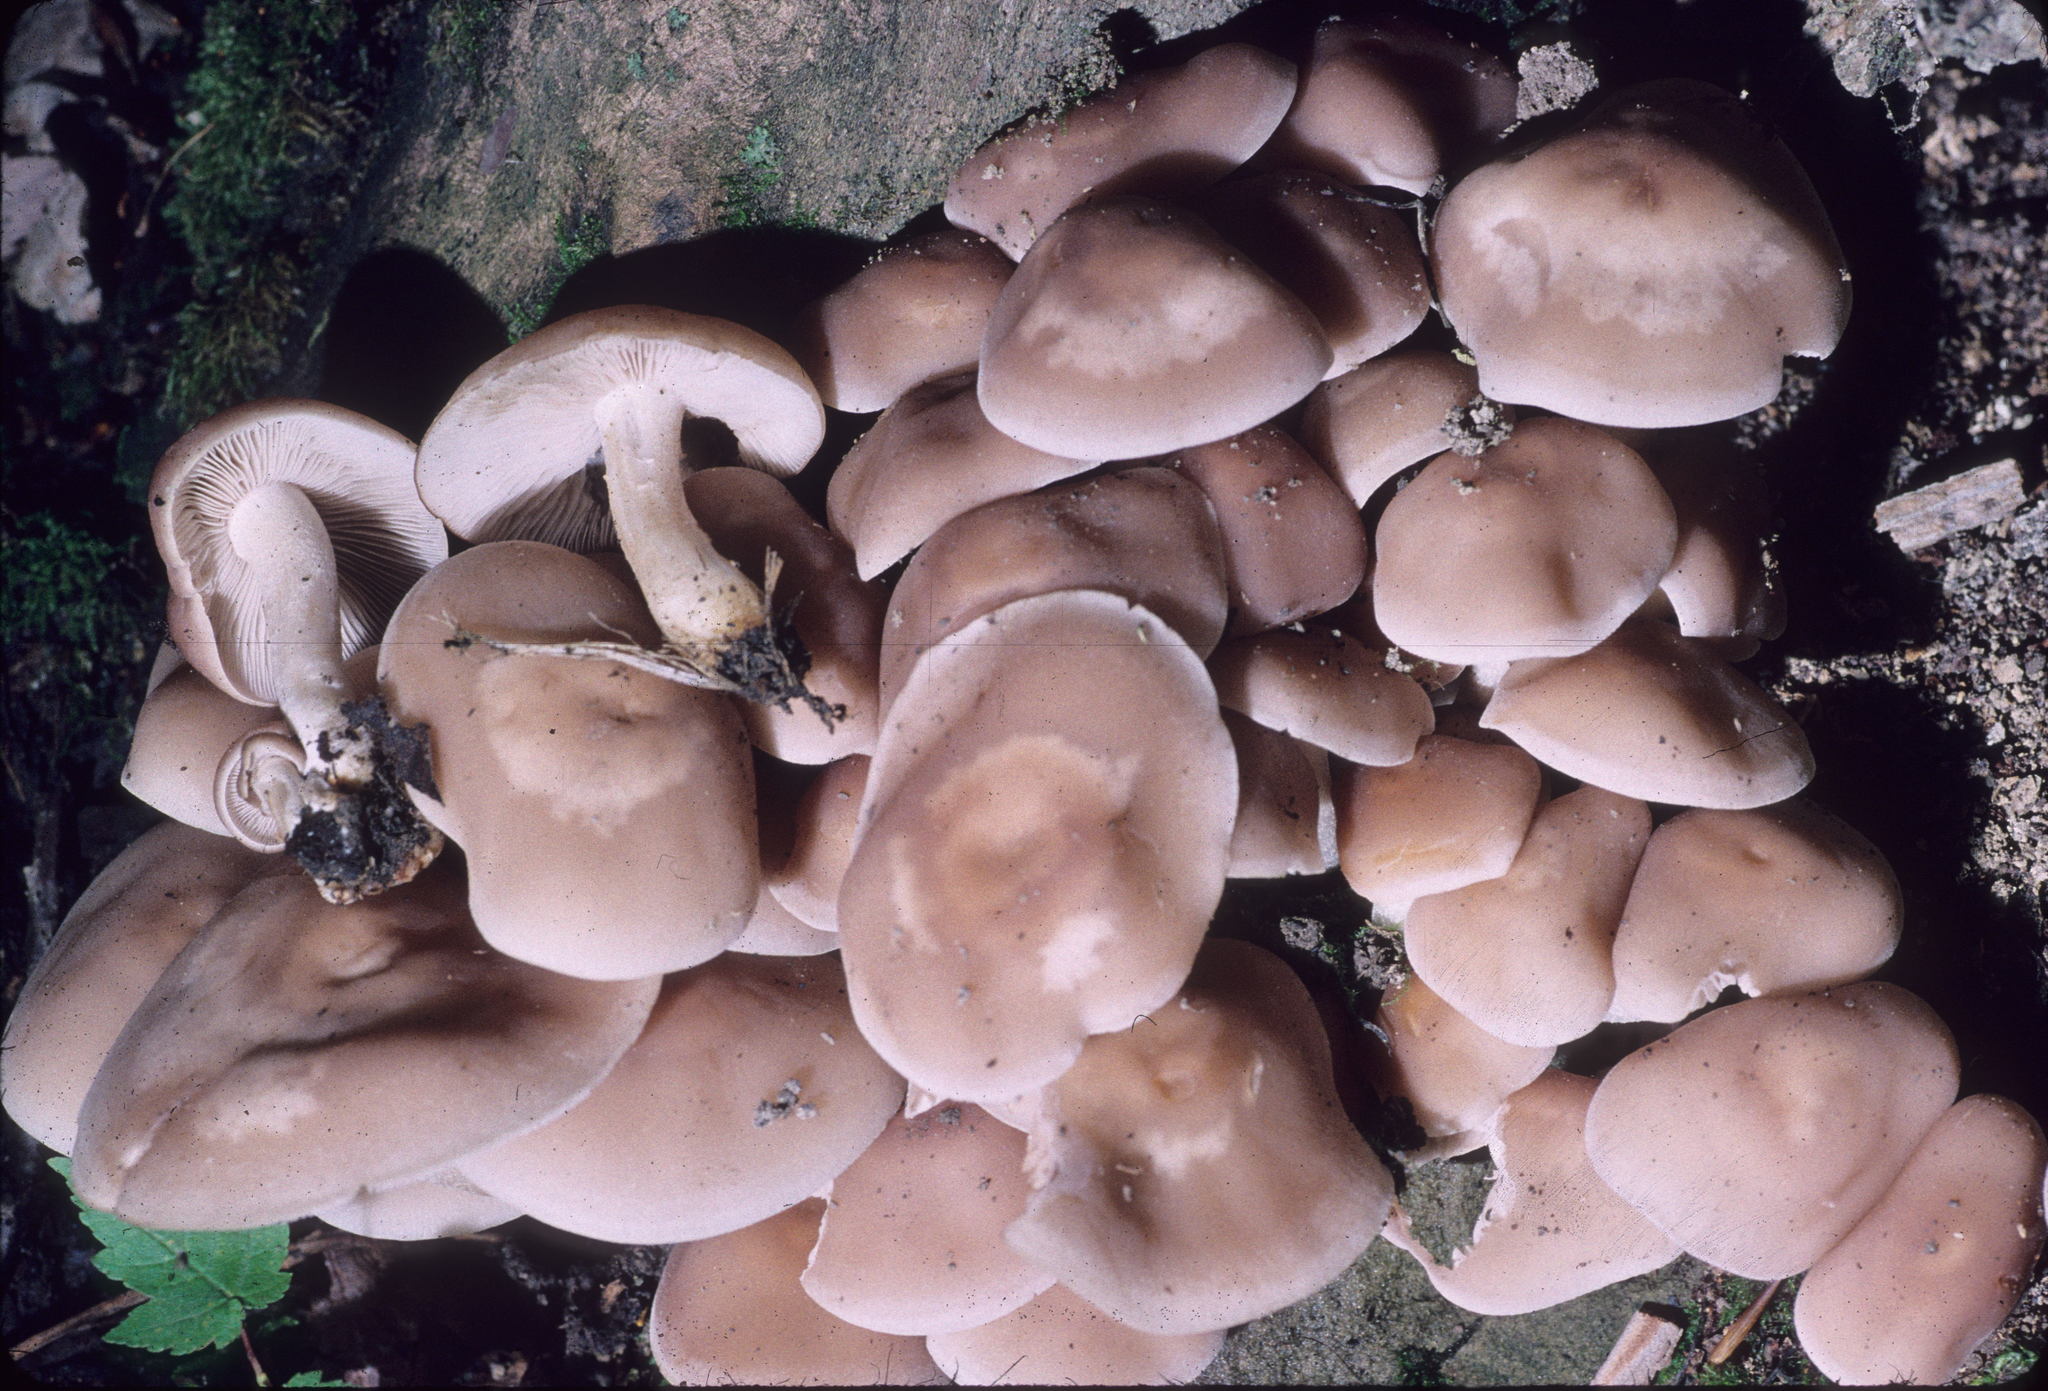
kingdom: Fungi
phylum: Basidiomycota
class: Agaricomycetes
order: Agaricales
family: Psathyrellaceae
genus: Psathyrella
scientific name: Psathyrella conissans
